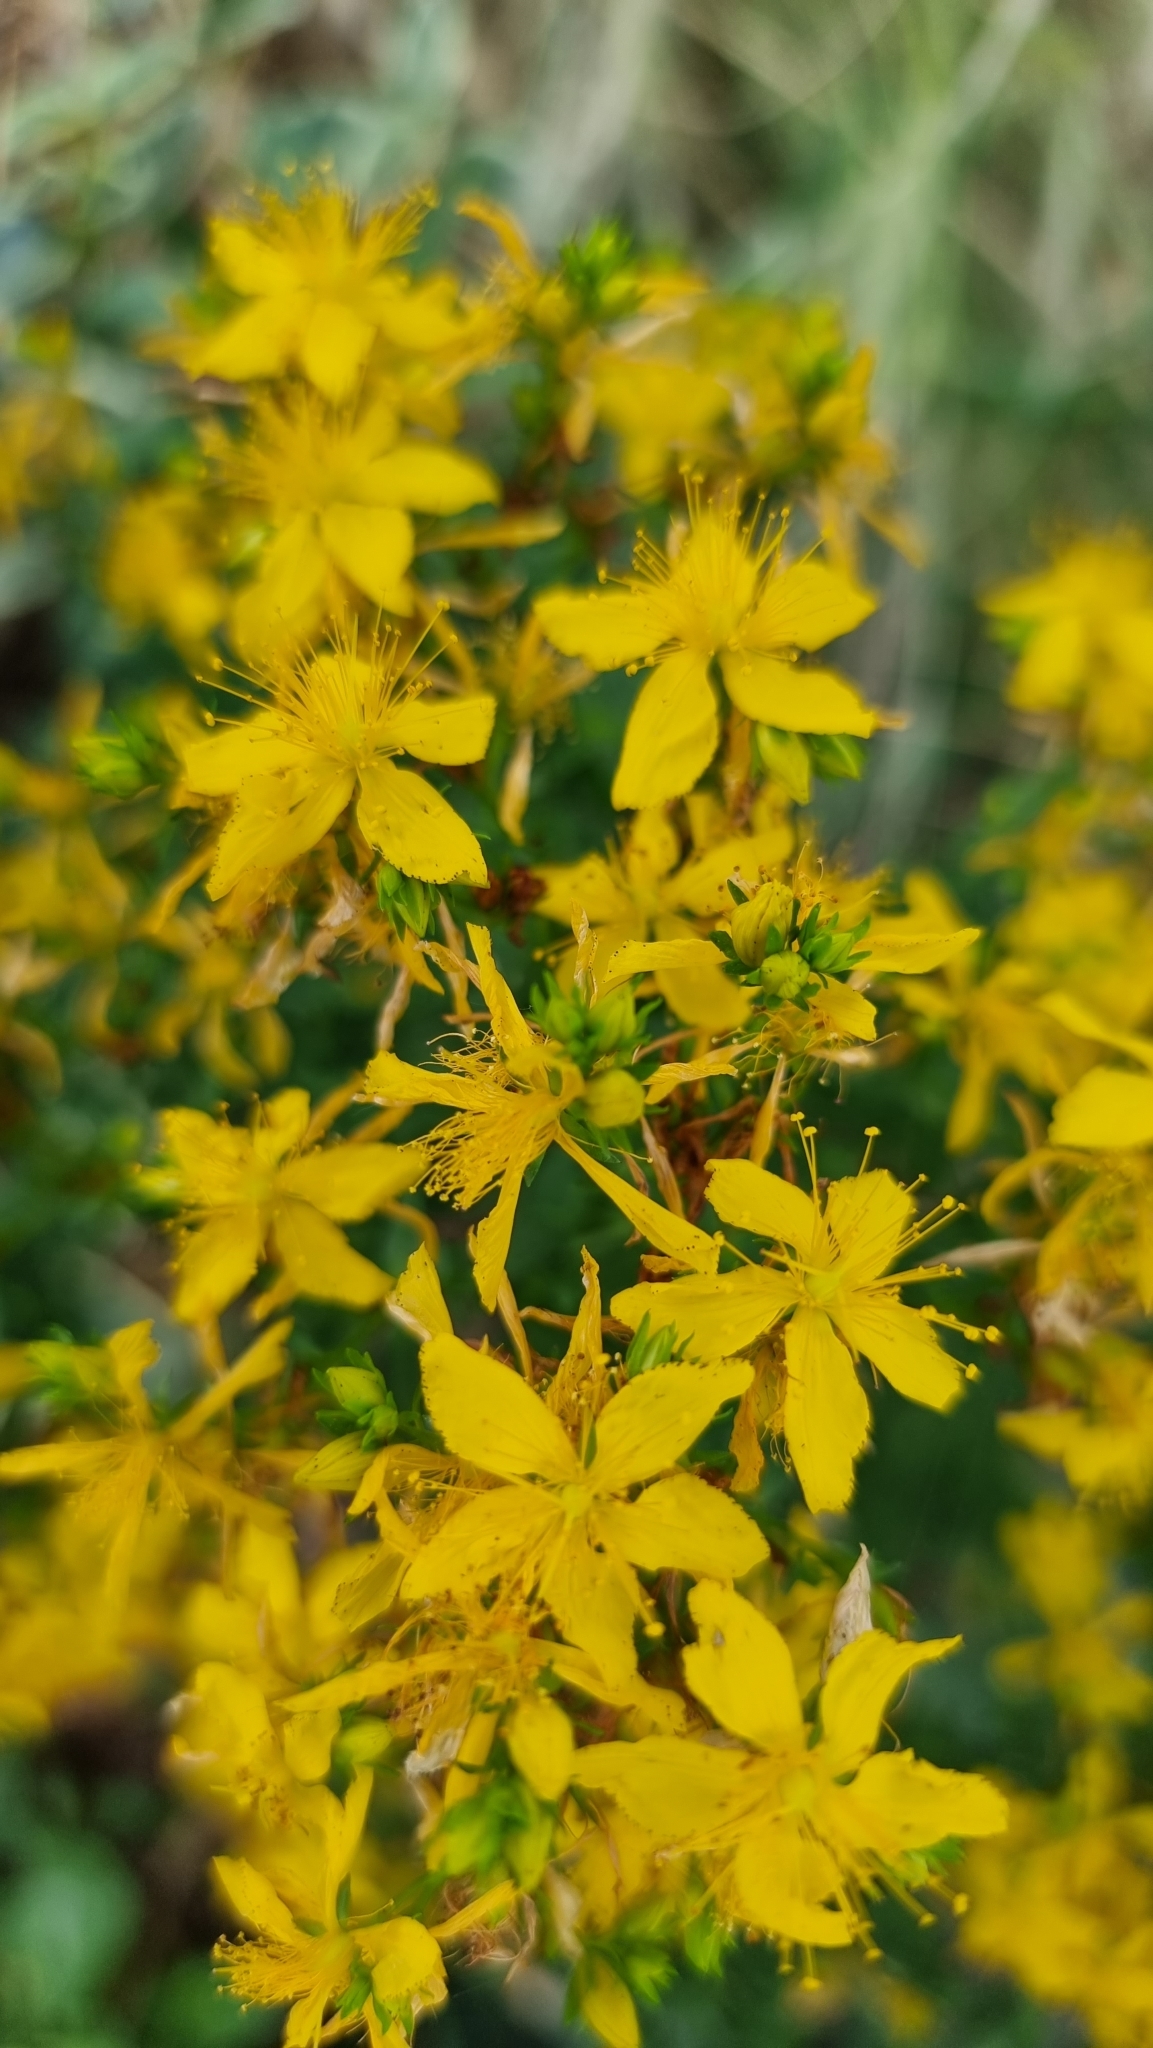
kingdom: Plantae
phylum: Tracheophyta
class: Magnoliopsida
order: Malpighiales
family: Hypericaceae
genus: Hypericum
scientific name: Hypericum perforatum
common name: Common st. johnswort
